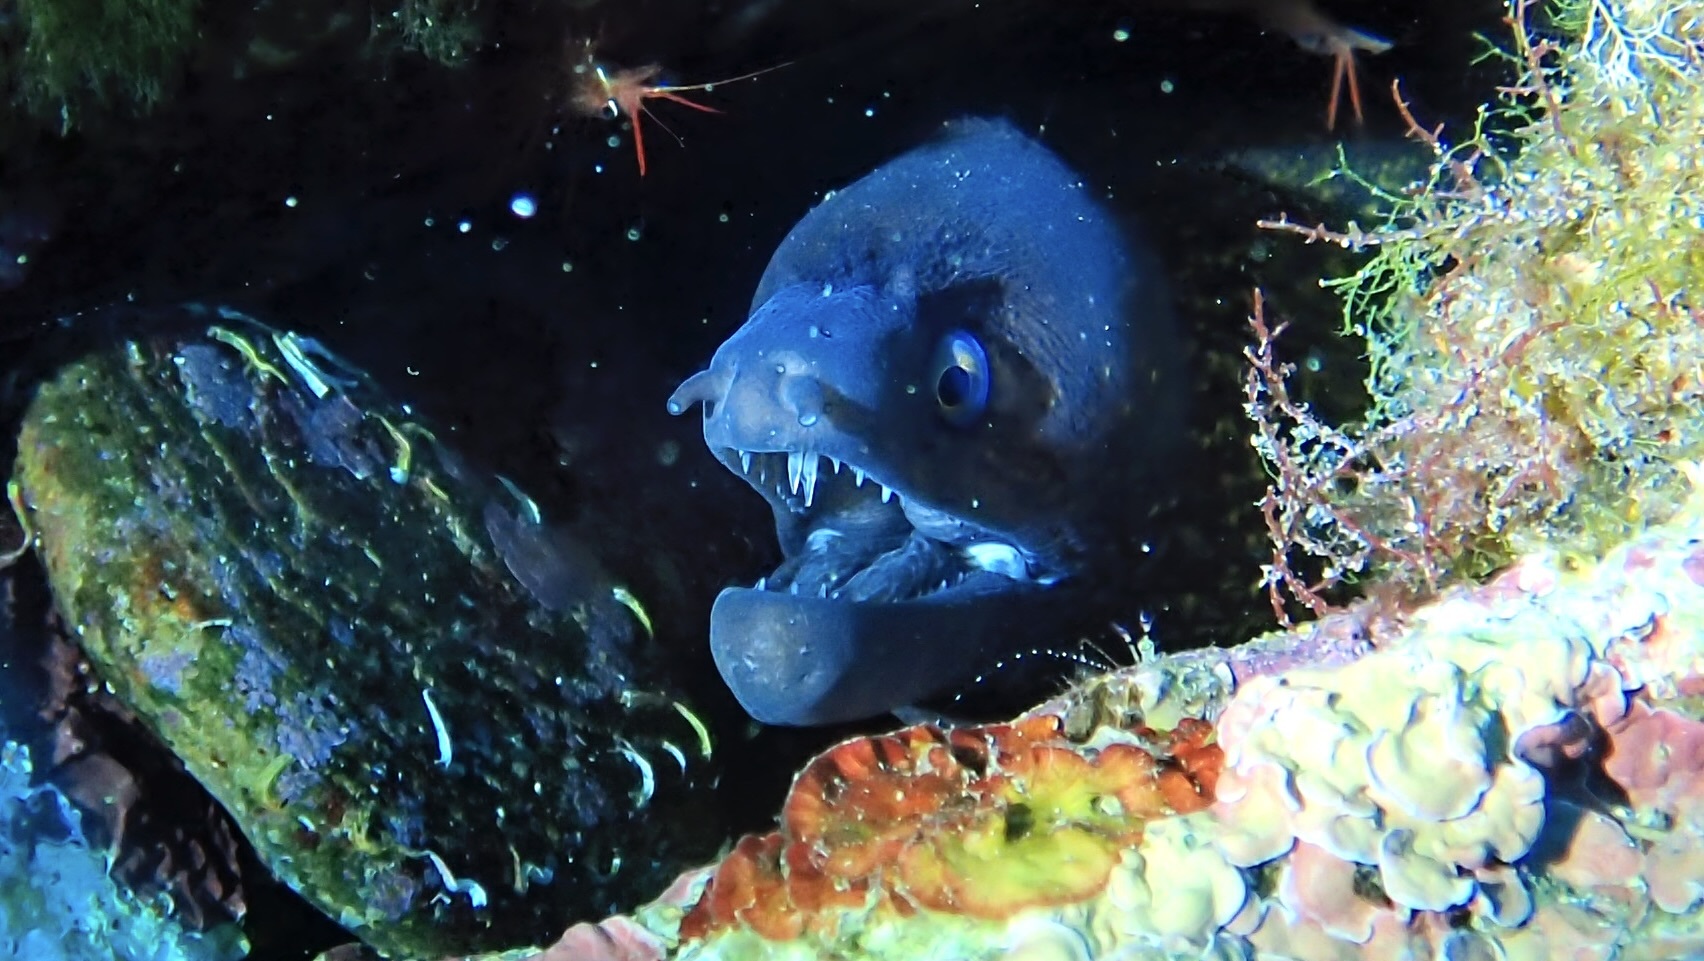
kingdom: Animalia
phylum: Chordata
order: Anguilliformes
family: Muraenidae
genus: Muraena
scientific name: Muraena helena
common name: Mediterranean moray
